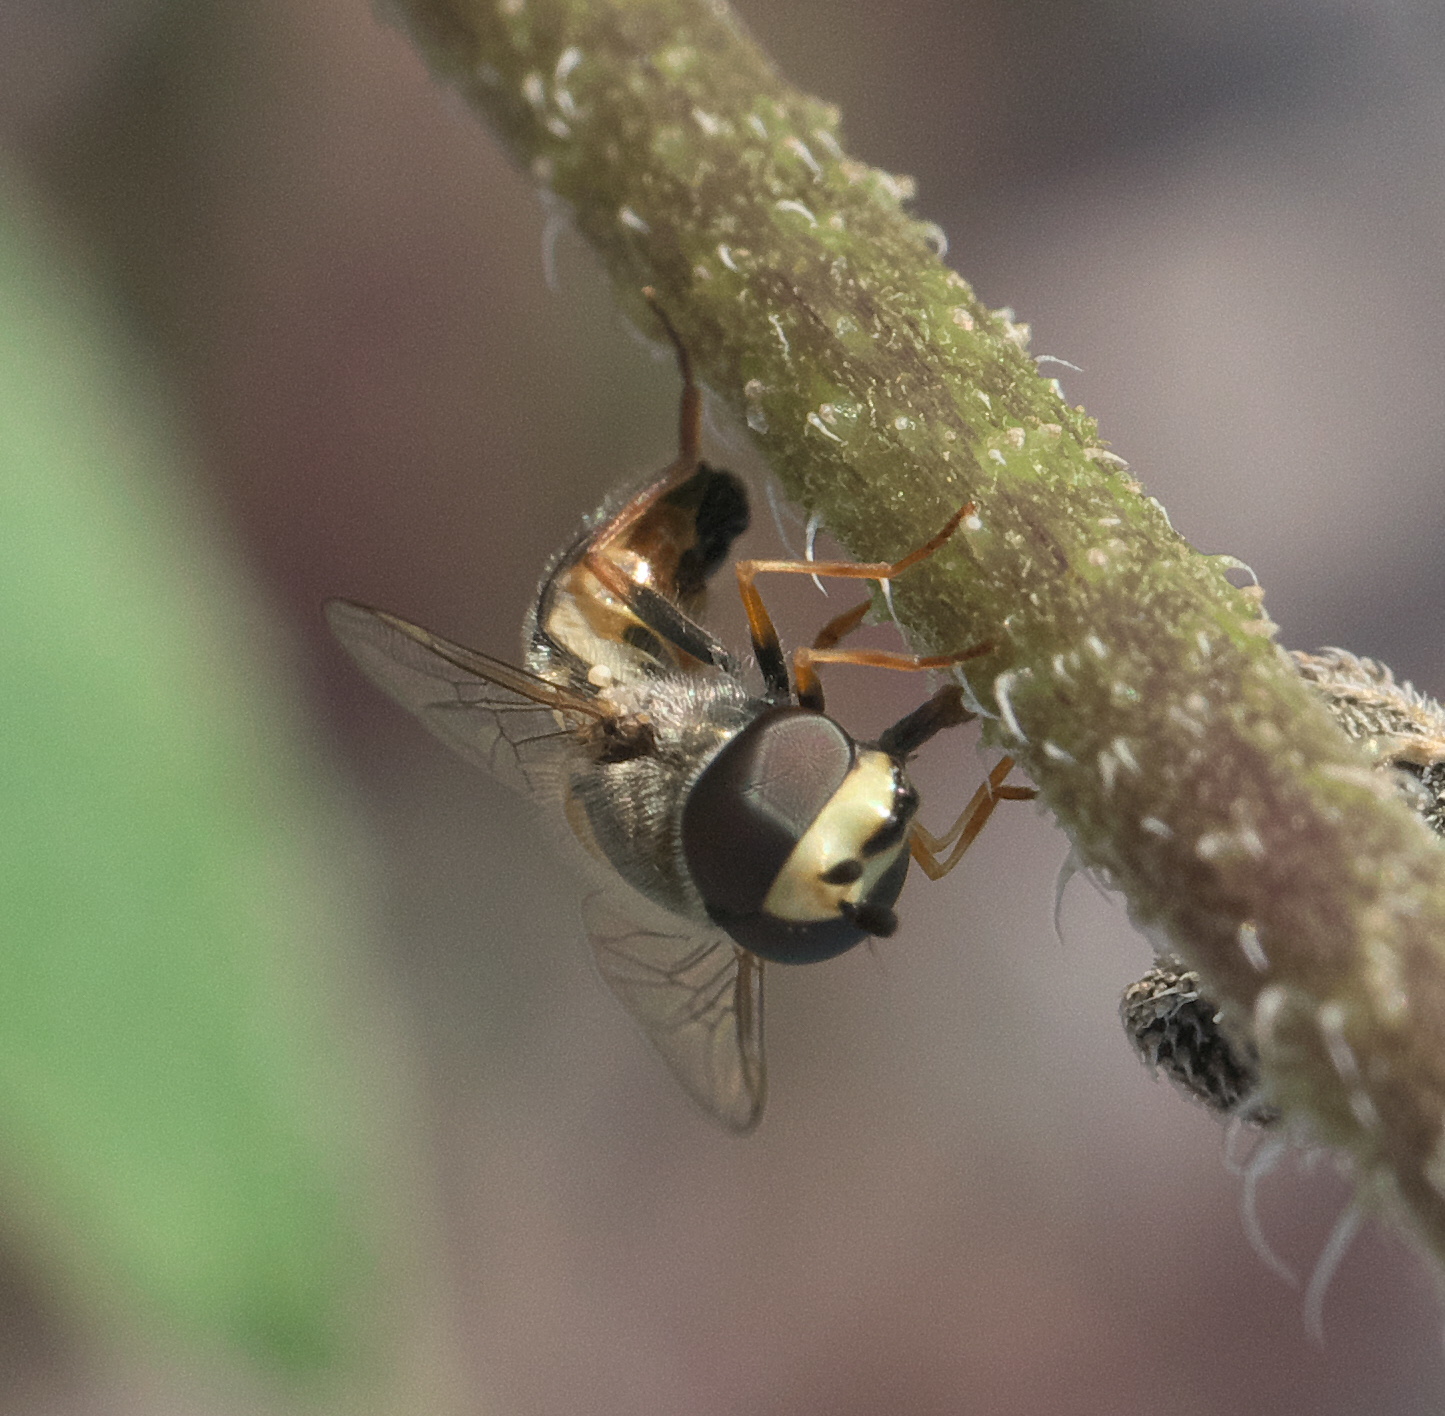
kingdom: Animalia
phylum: Arthropoda
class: Insecta
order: Diptera
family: Syrphidae
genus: Eupeodes
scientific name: Eupeodes volucris
